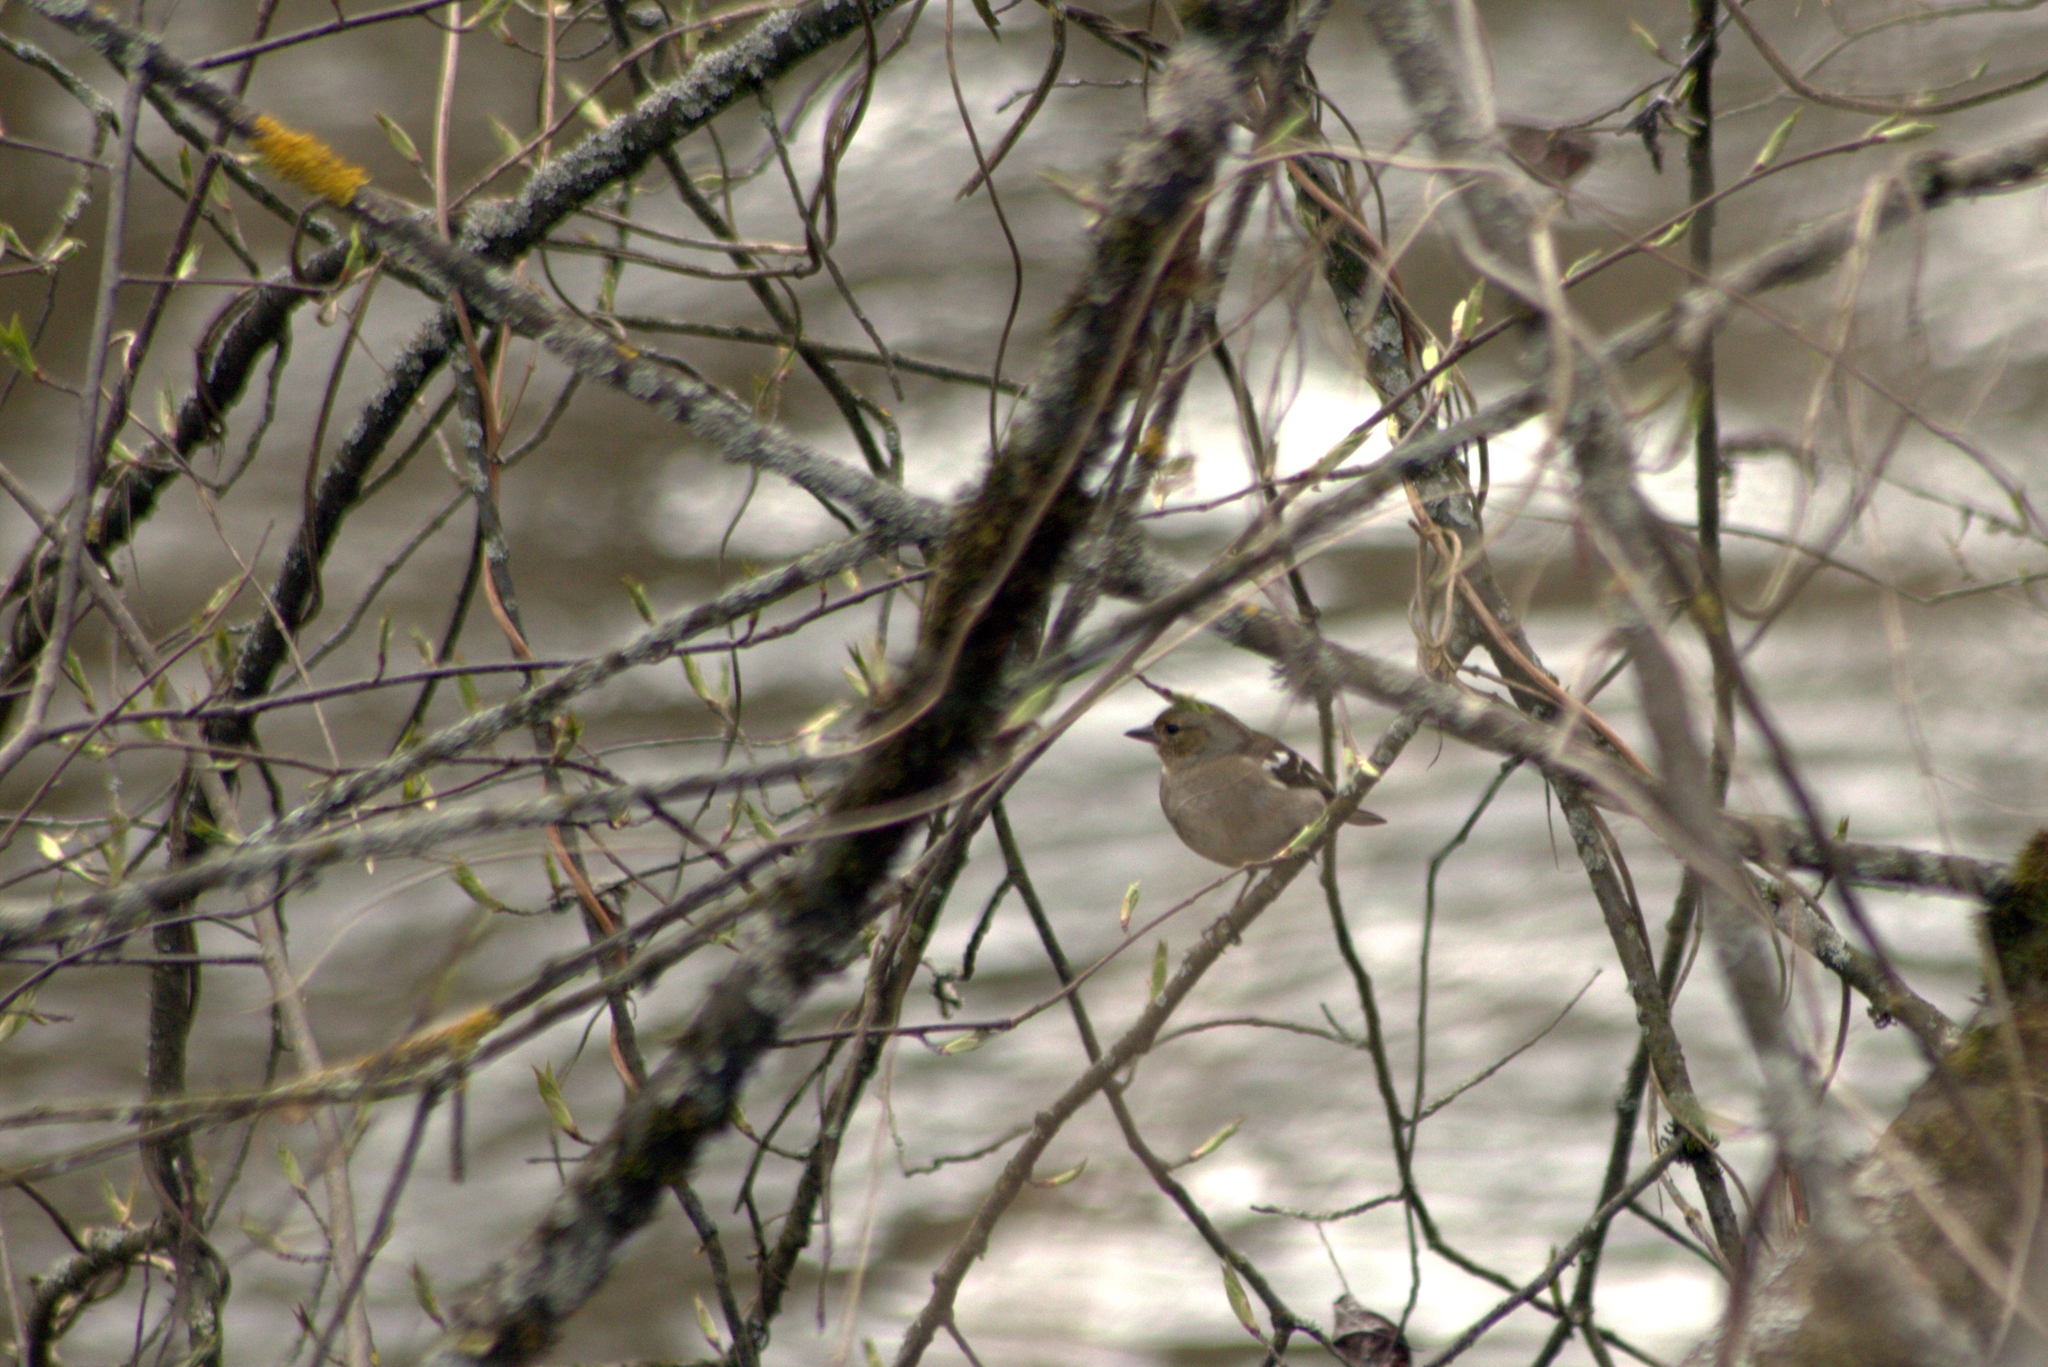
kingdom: Animalia
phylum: Chordata
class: Aves
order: Passeriformes
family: Fringillidae
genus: Fringilla
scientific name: Fringilla coelebs
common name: Common chaffinch
